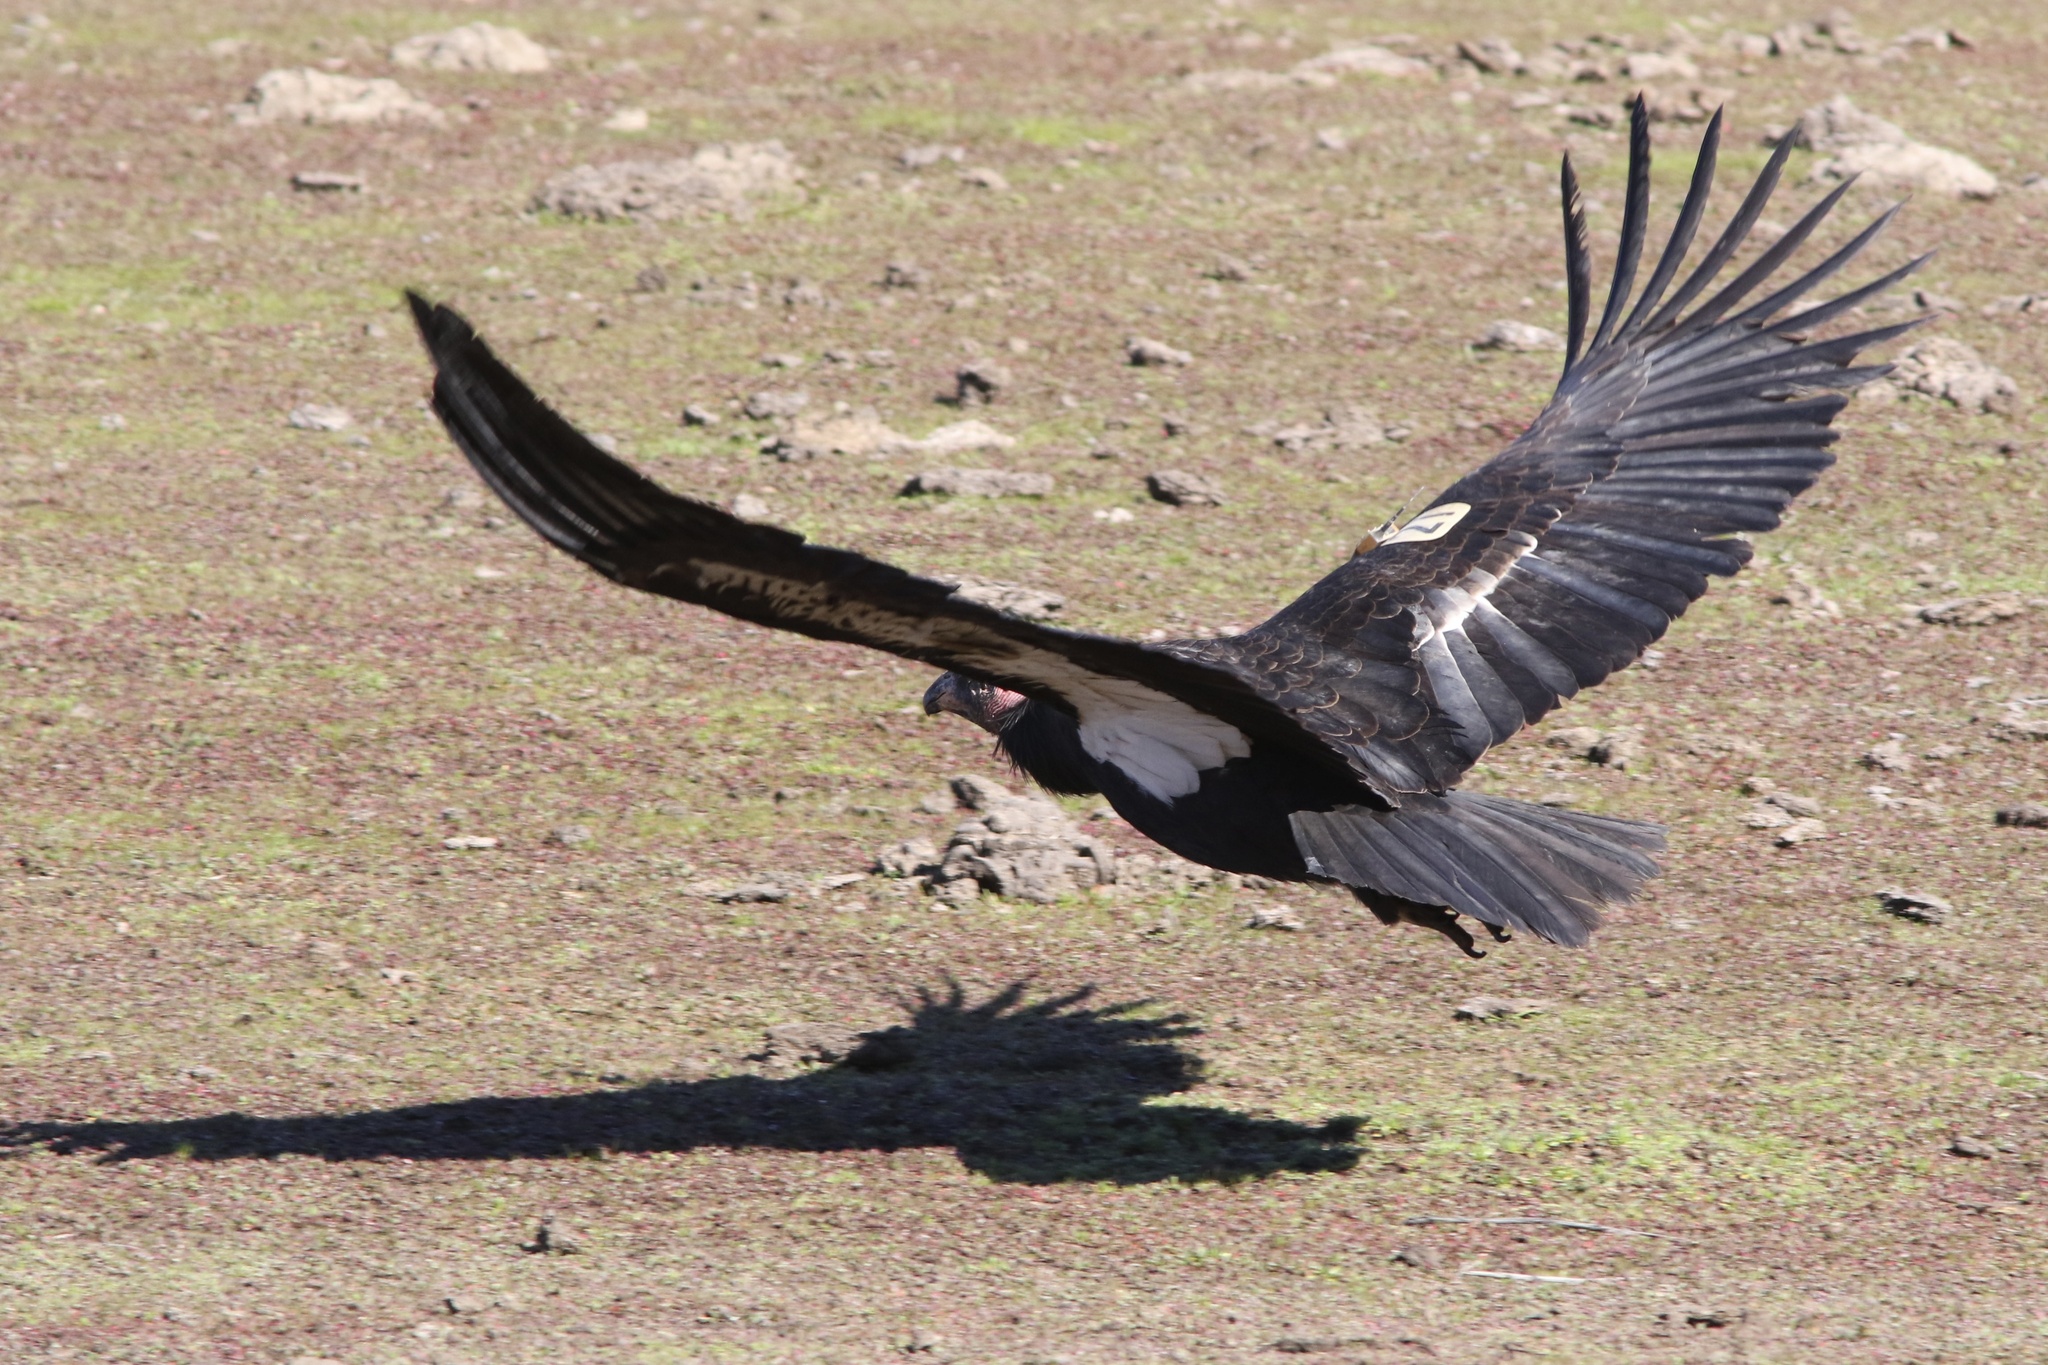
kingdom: Animalia
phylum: Chordata
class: Aves
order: Accipitriformes
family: Cathartidae
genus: Gymnogyps
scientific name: Gymnogyps californianus
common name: California condor
